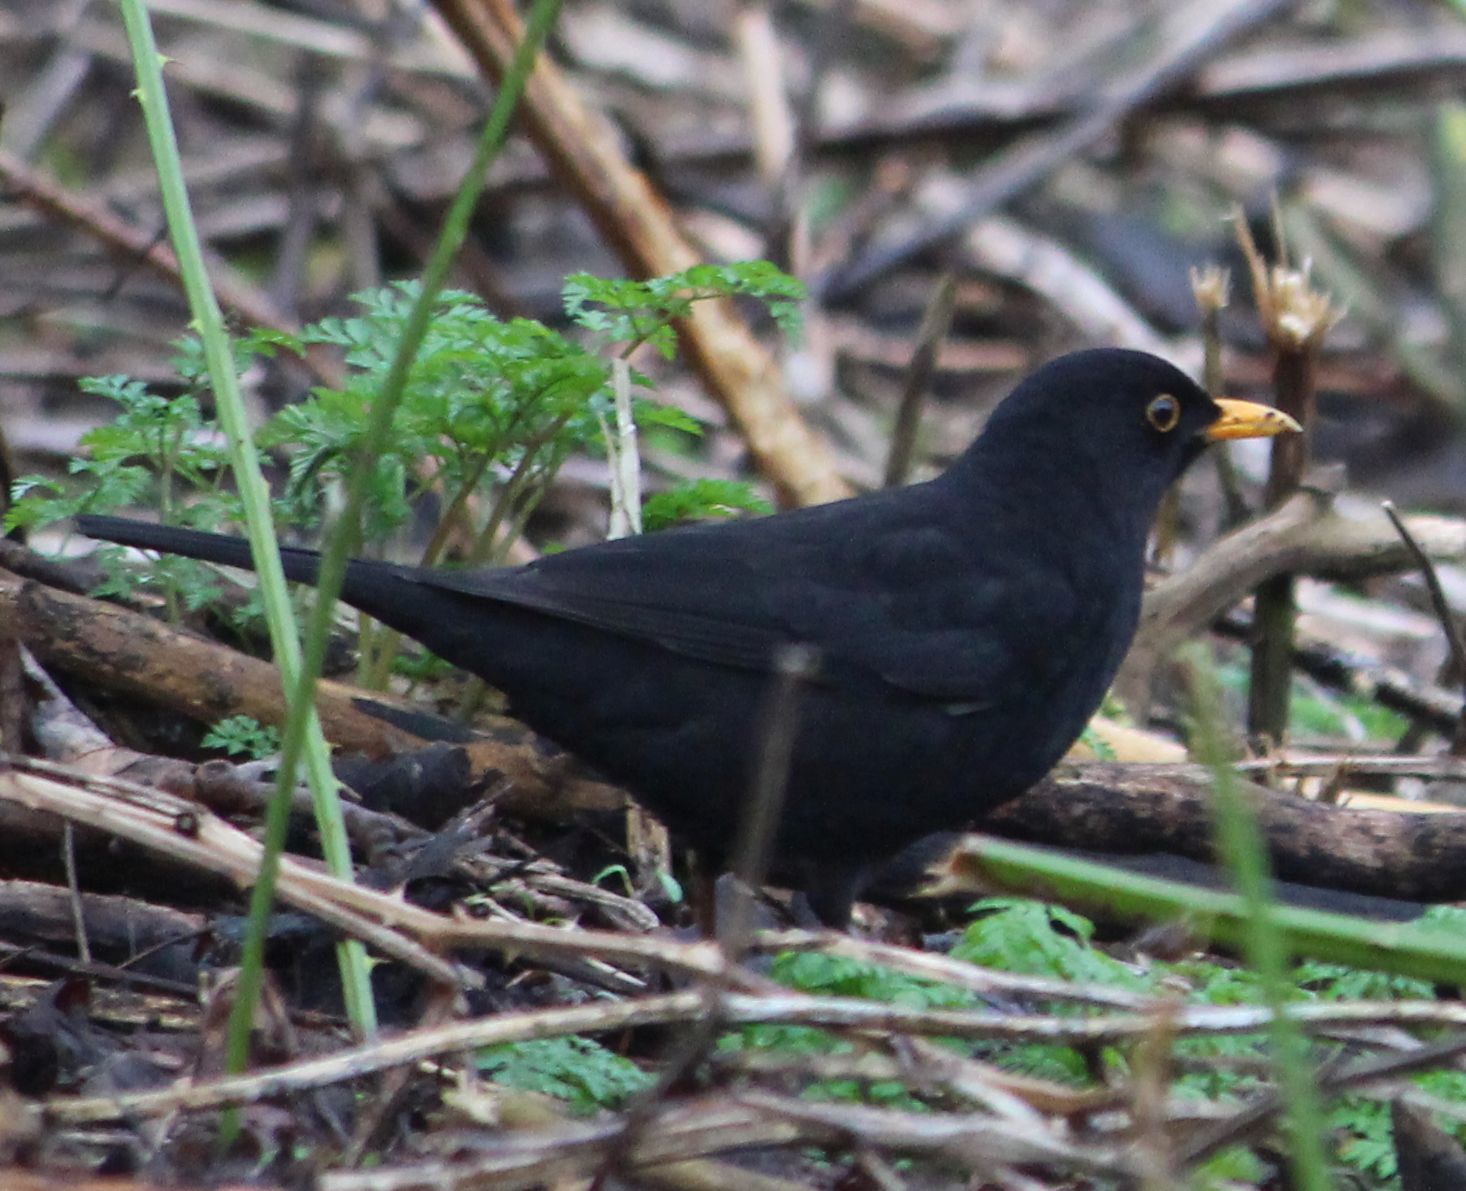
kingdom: Animalia
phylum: Chordata
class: Aves
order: Passeriformes
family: Turdidae
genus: Turdus
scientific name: Turdus merula
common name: Common blackbird
